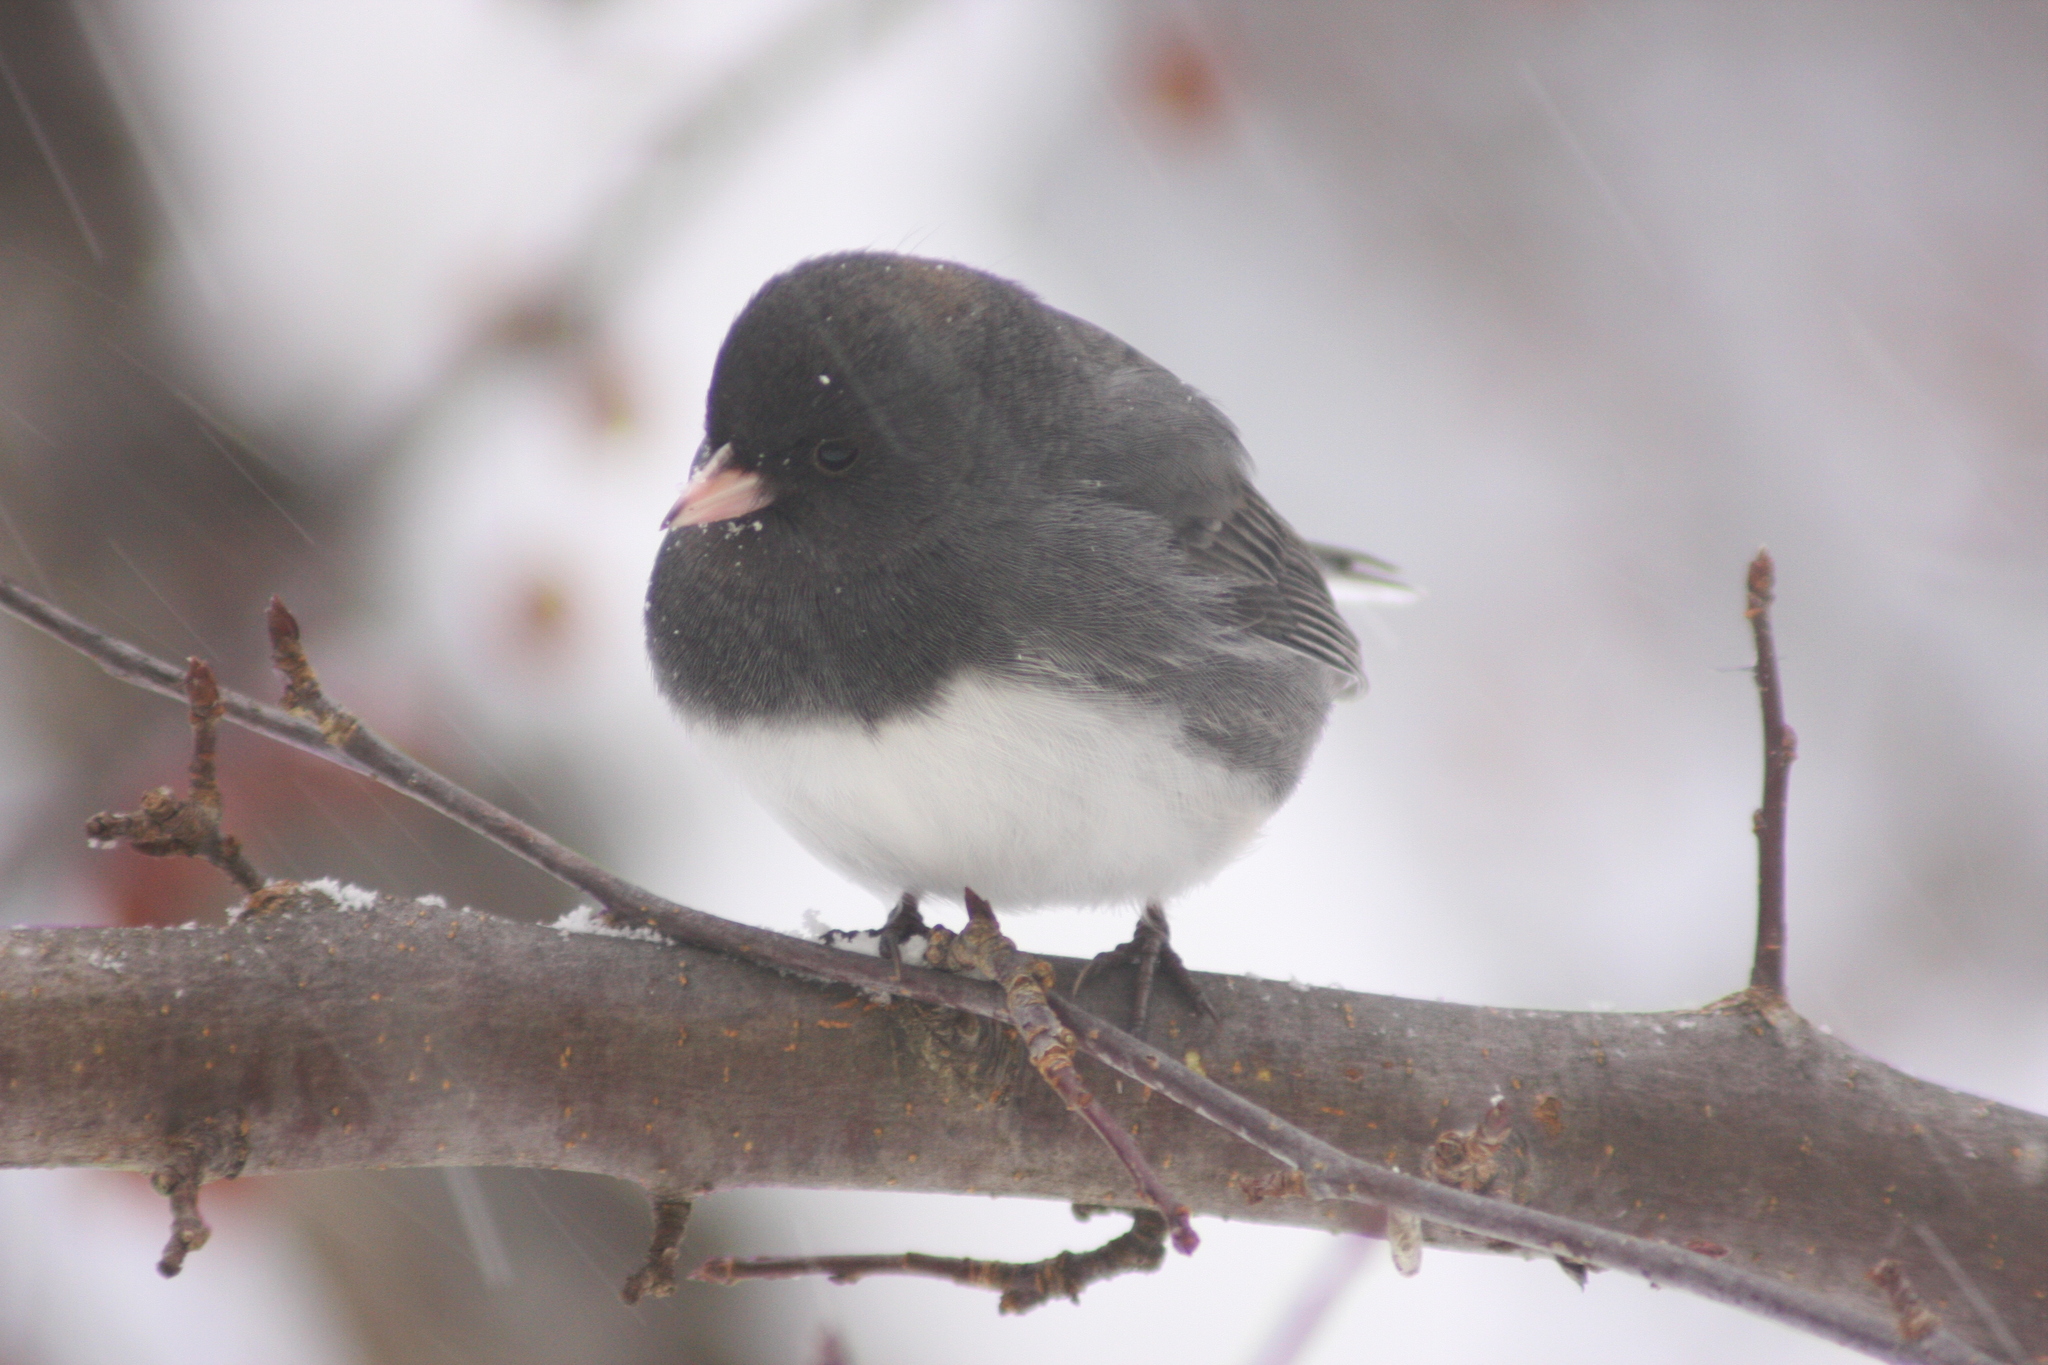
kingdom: Animalia
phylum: Chordata
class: Aves
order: Passeriformes
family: Passerellidae
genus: Junco
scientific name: Junco hyemalis
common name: Dark-eyed junco
